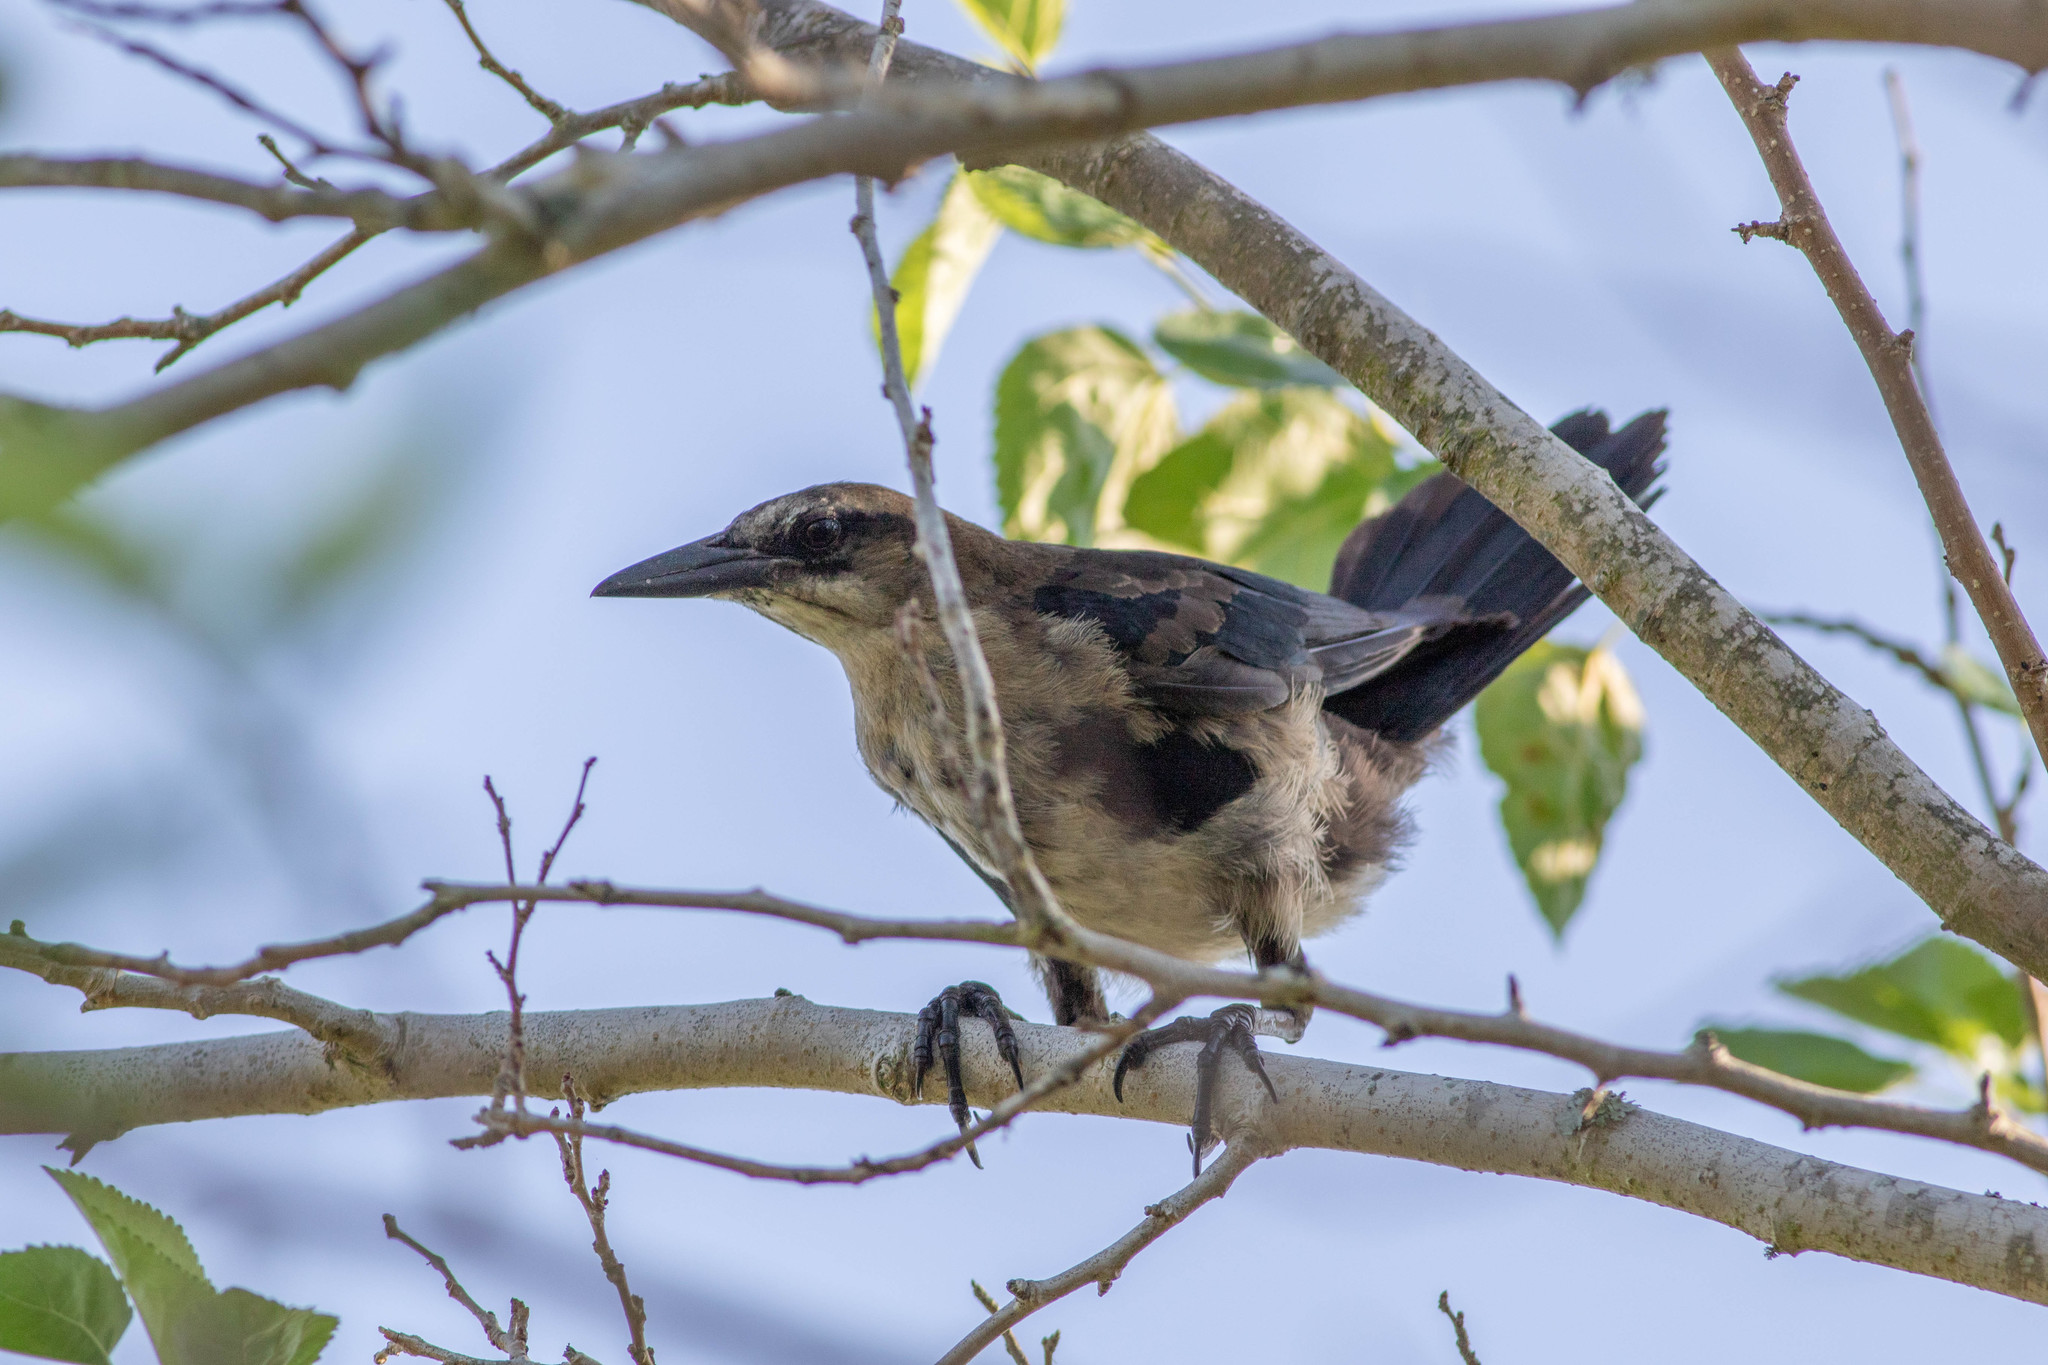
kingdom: Animalia
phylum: Chordata
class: Aves
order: Passeriformes
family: Icteridae
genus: Quiscalus
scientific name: Quiscalus major
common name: Boat-tailed grackle
